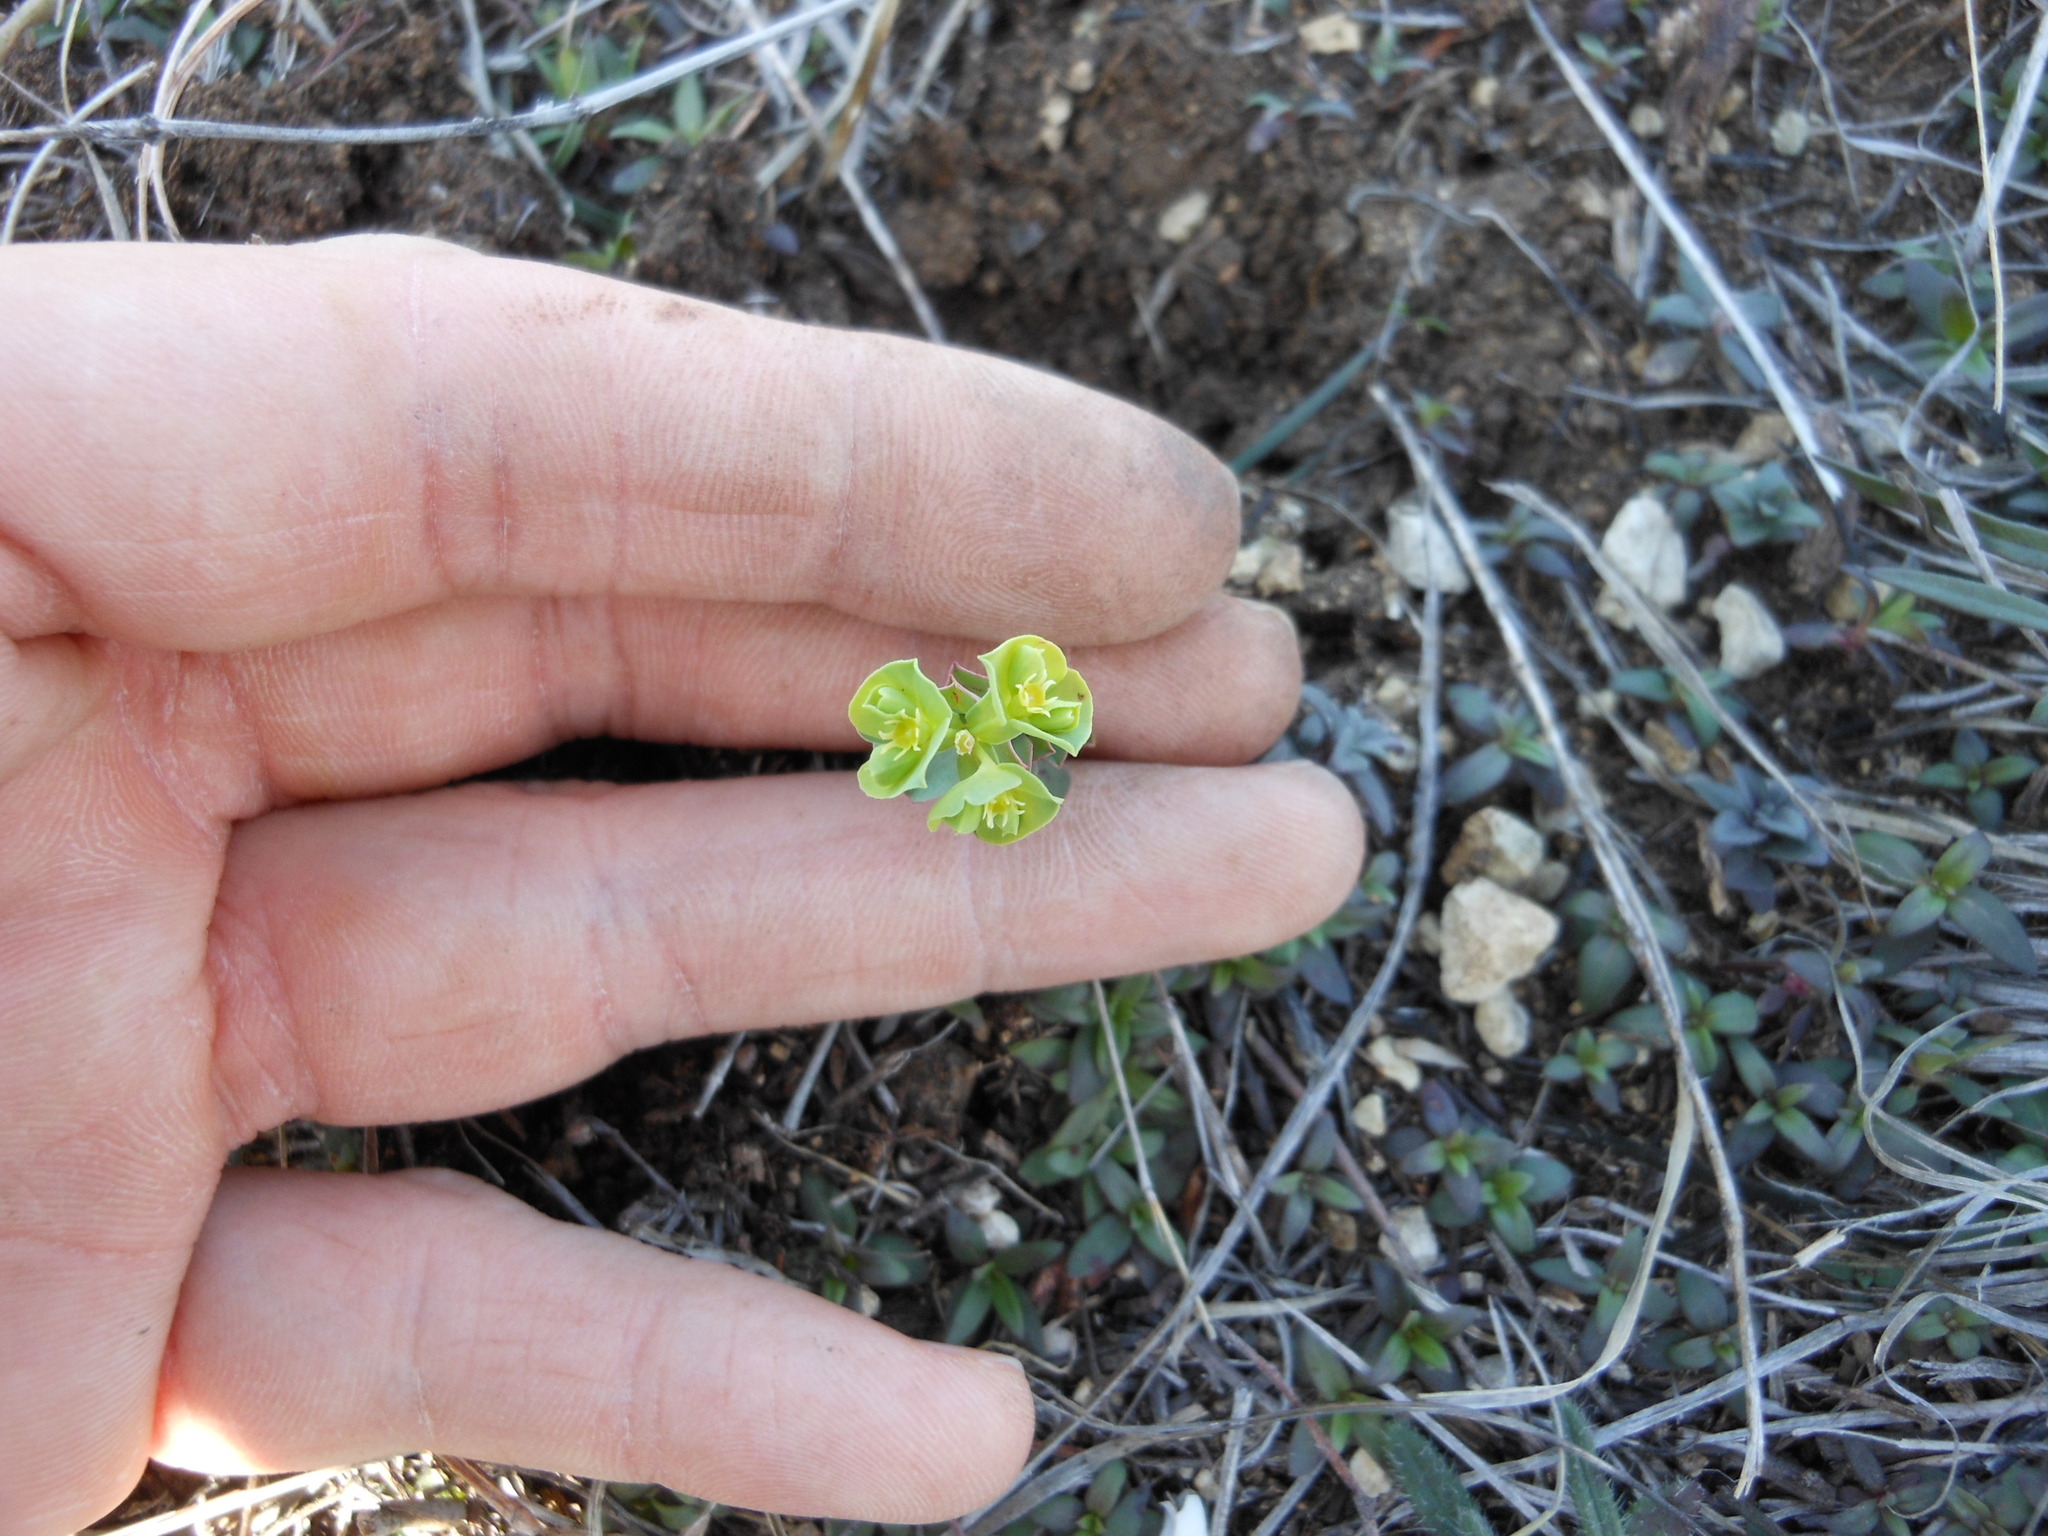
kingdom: Plantae
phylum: Tracheophyta
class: Magnoliopsida
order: Malpighiales
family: Euphorbiaceae
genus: Euphorbia
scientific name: Euphorbia longicruris
